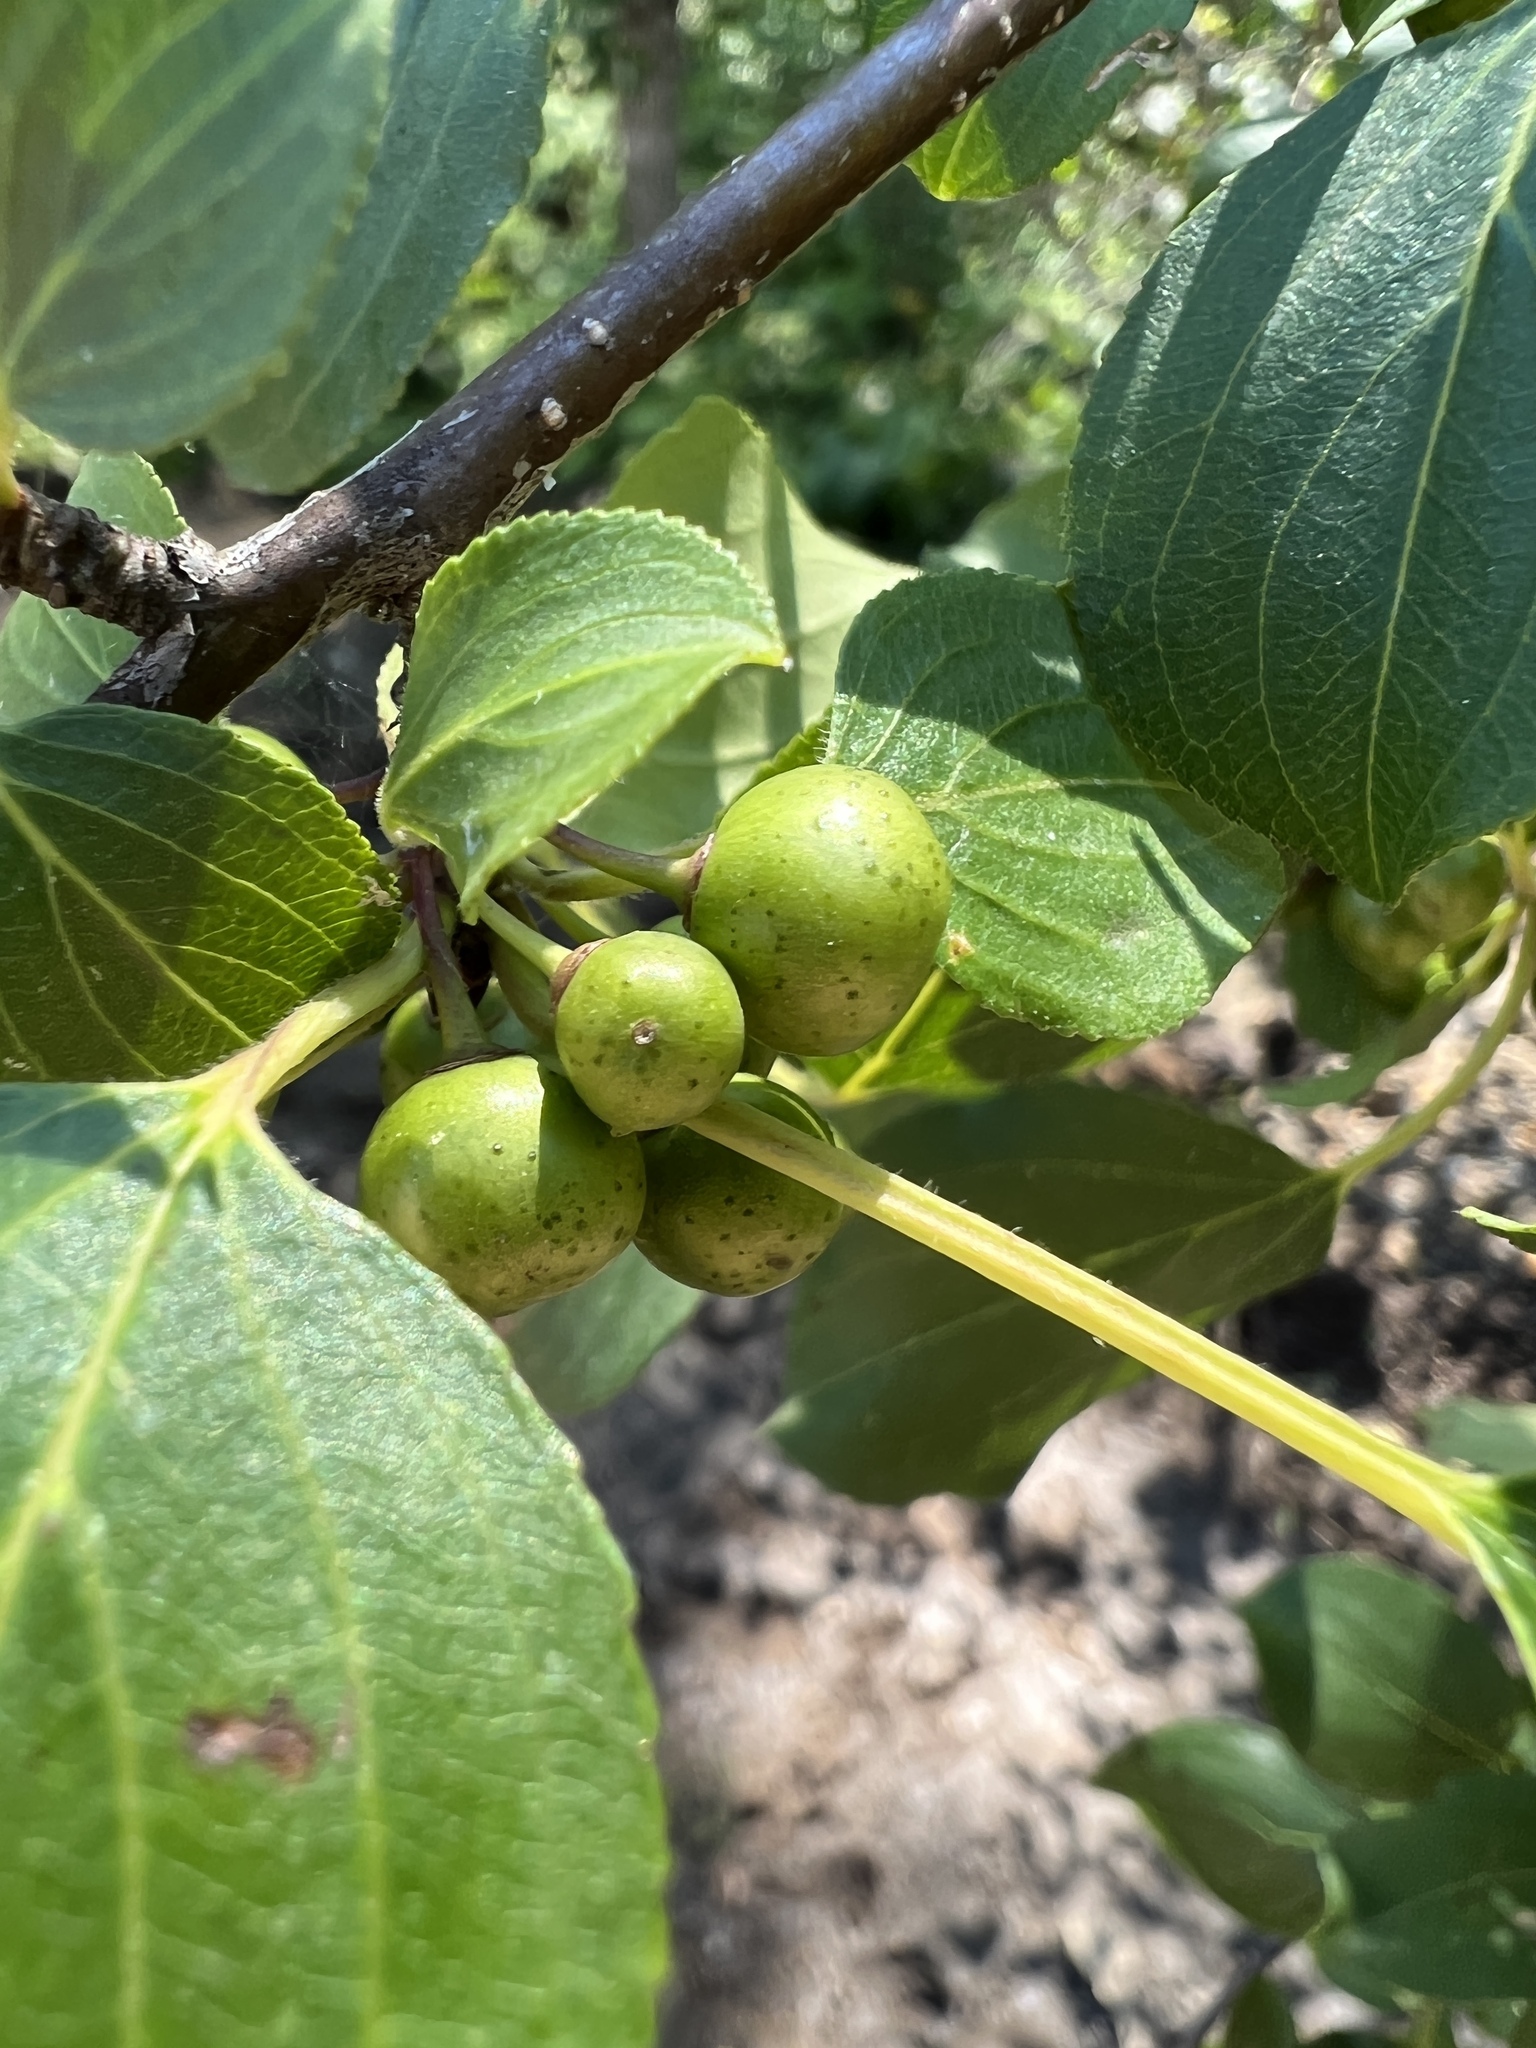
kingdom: Plantae
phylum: Tracheophyta
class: Magnoliopsida
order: Rosales
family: Rhamnaceae
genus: Rhamnus
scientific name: Rhamnus cathartica
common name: Common buckthorn
